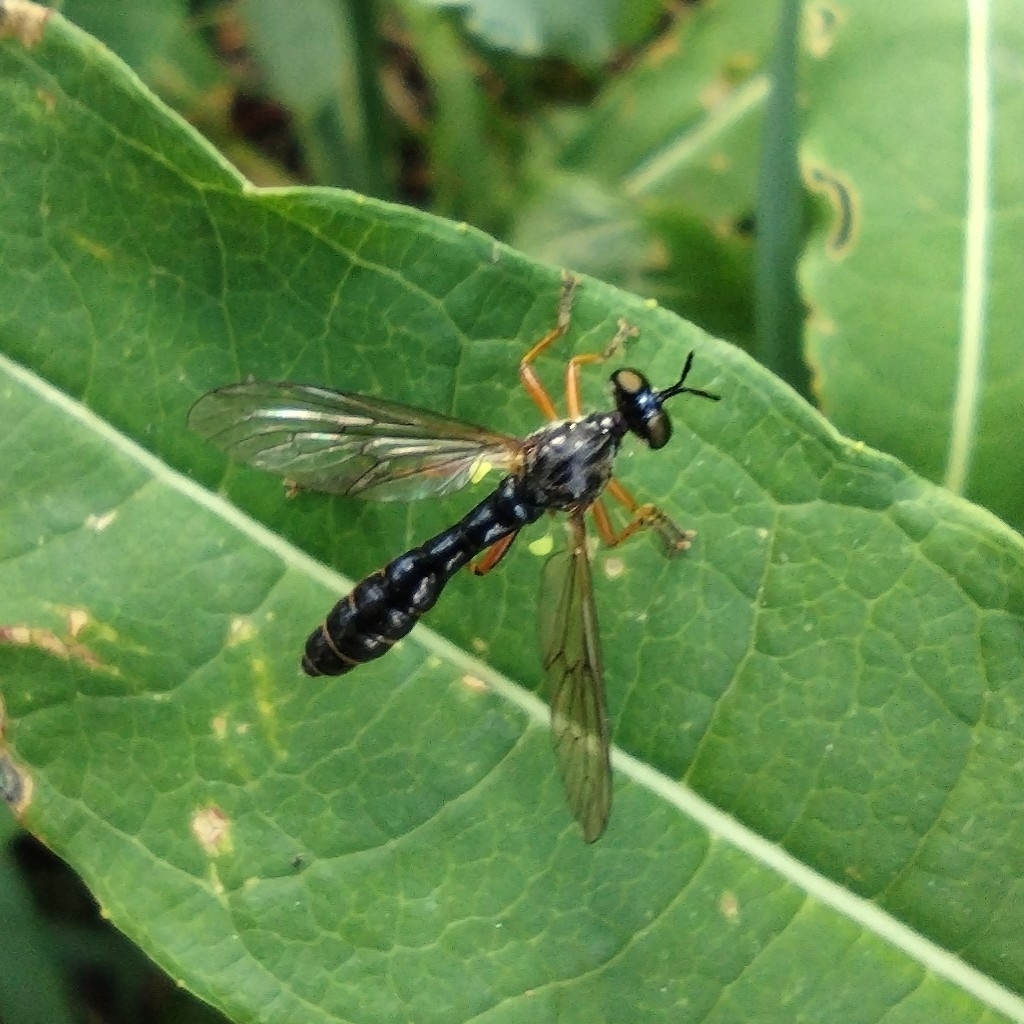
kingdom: Animalia
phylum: Arthropoda
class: Insecta
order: Diptera
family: Asilidae
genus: Dioctria
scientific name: Dioctria hyalipennis
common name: Stripe-legged robberfly
